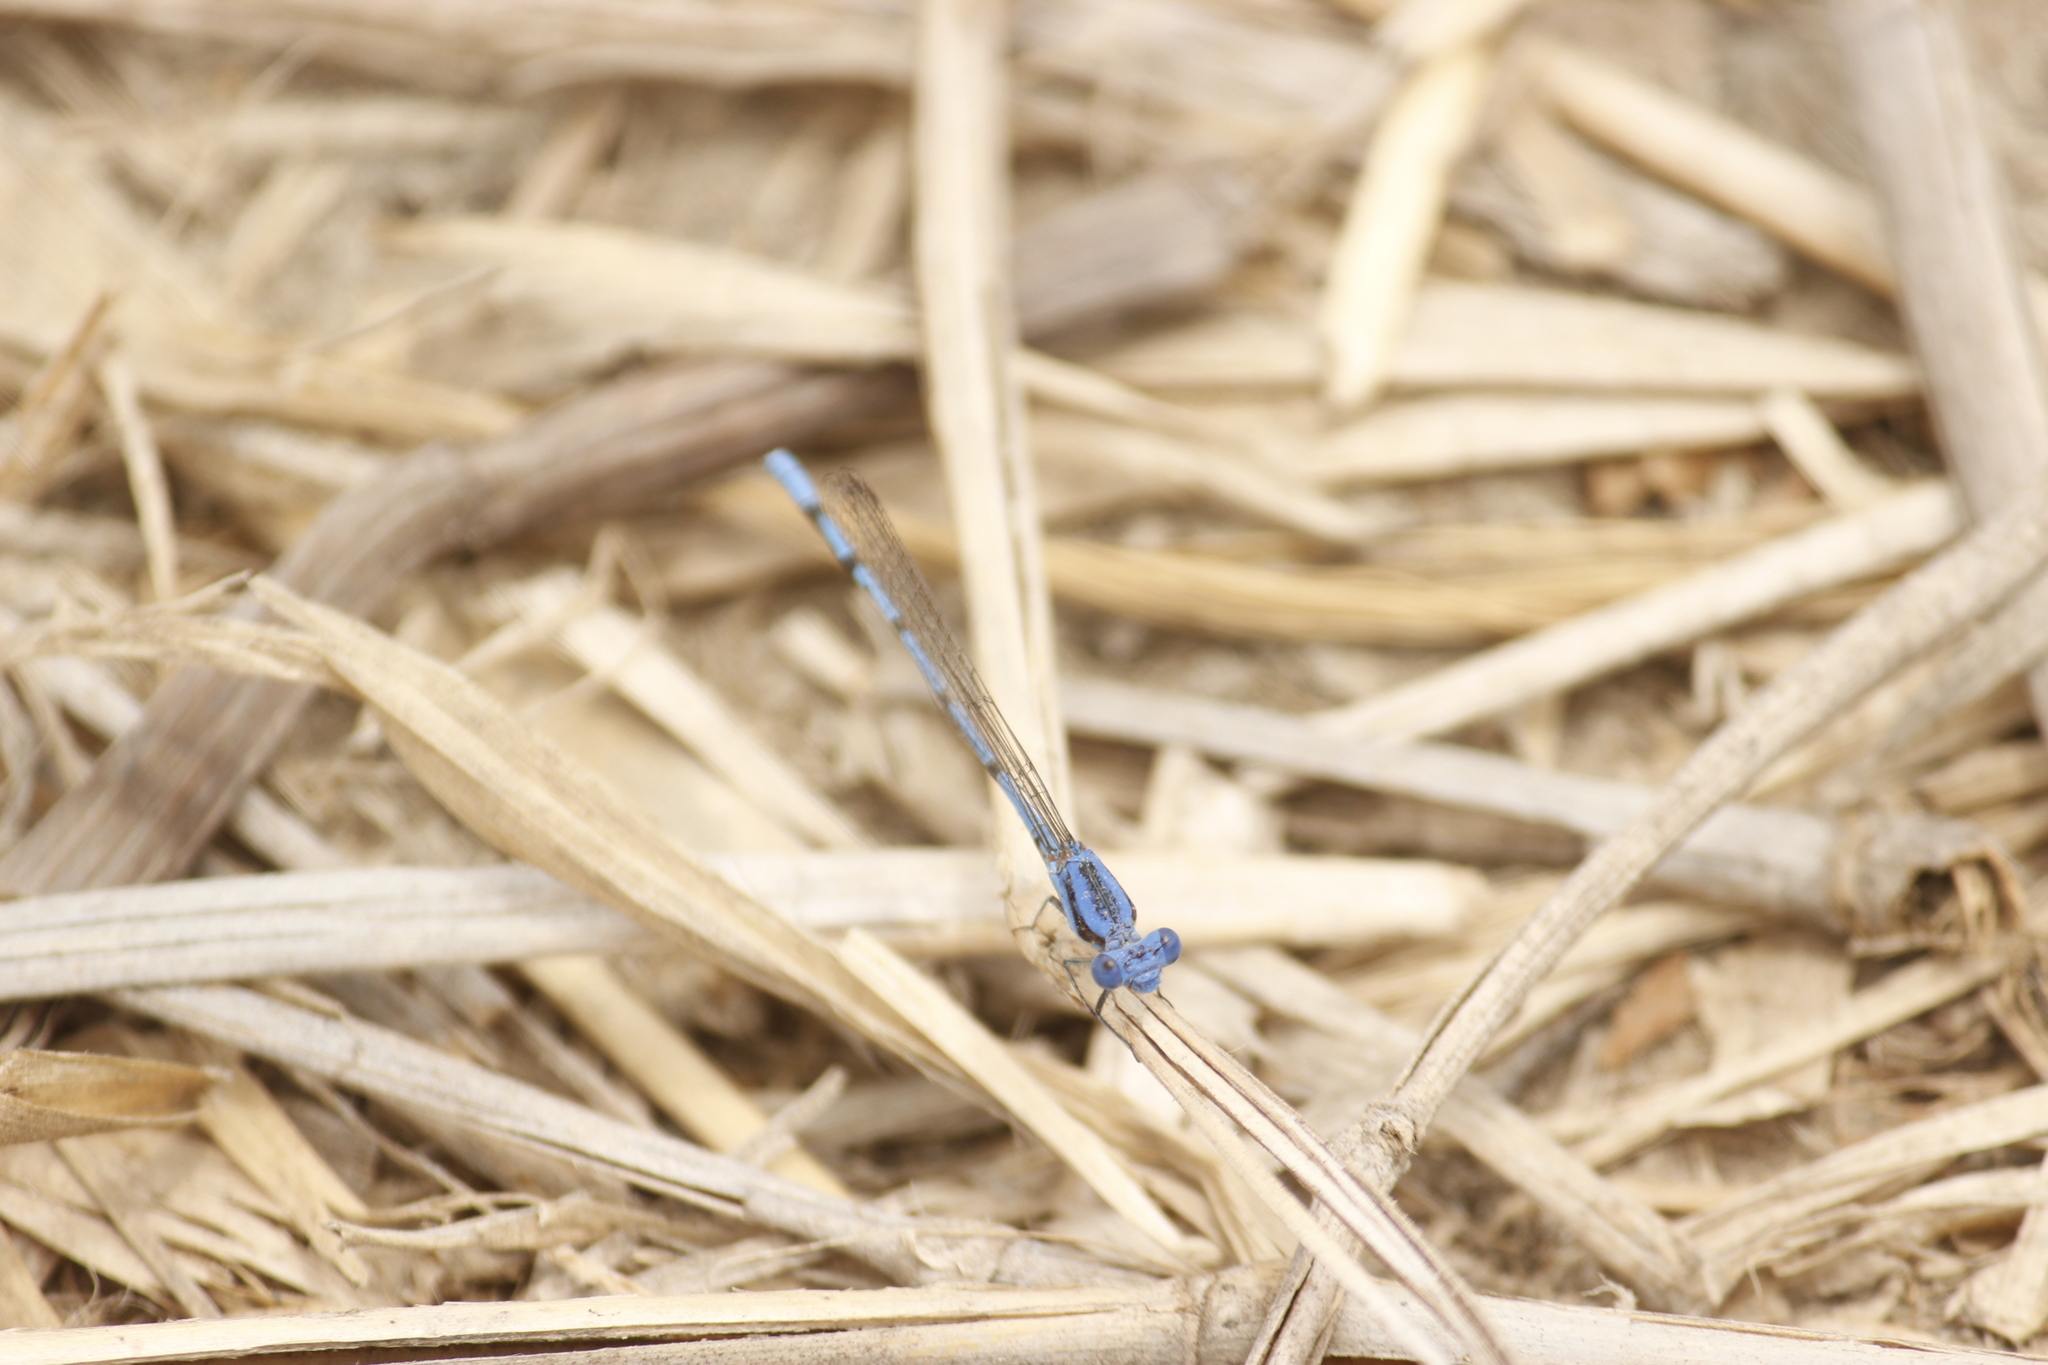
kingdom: Animalia
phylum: Arthropoda
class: Insecta
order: Odonata
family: Coenagrionidae
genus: Argia
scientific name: Argia inculta
